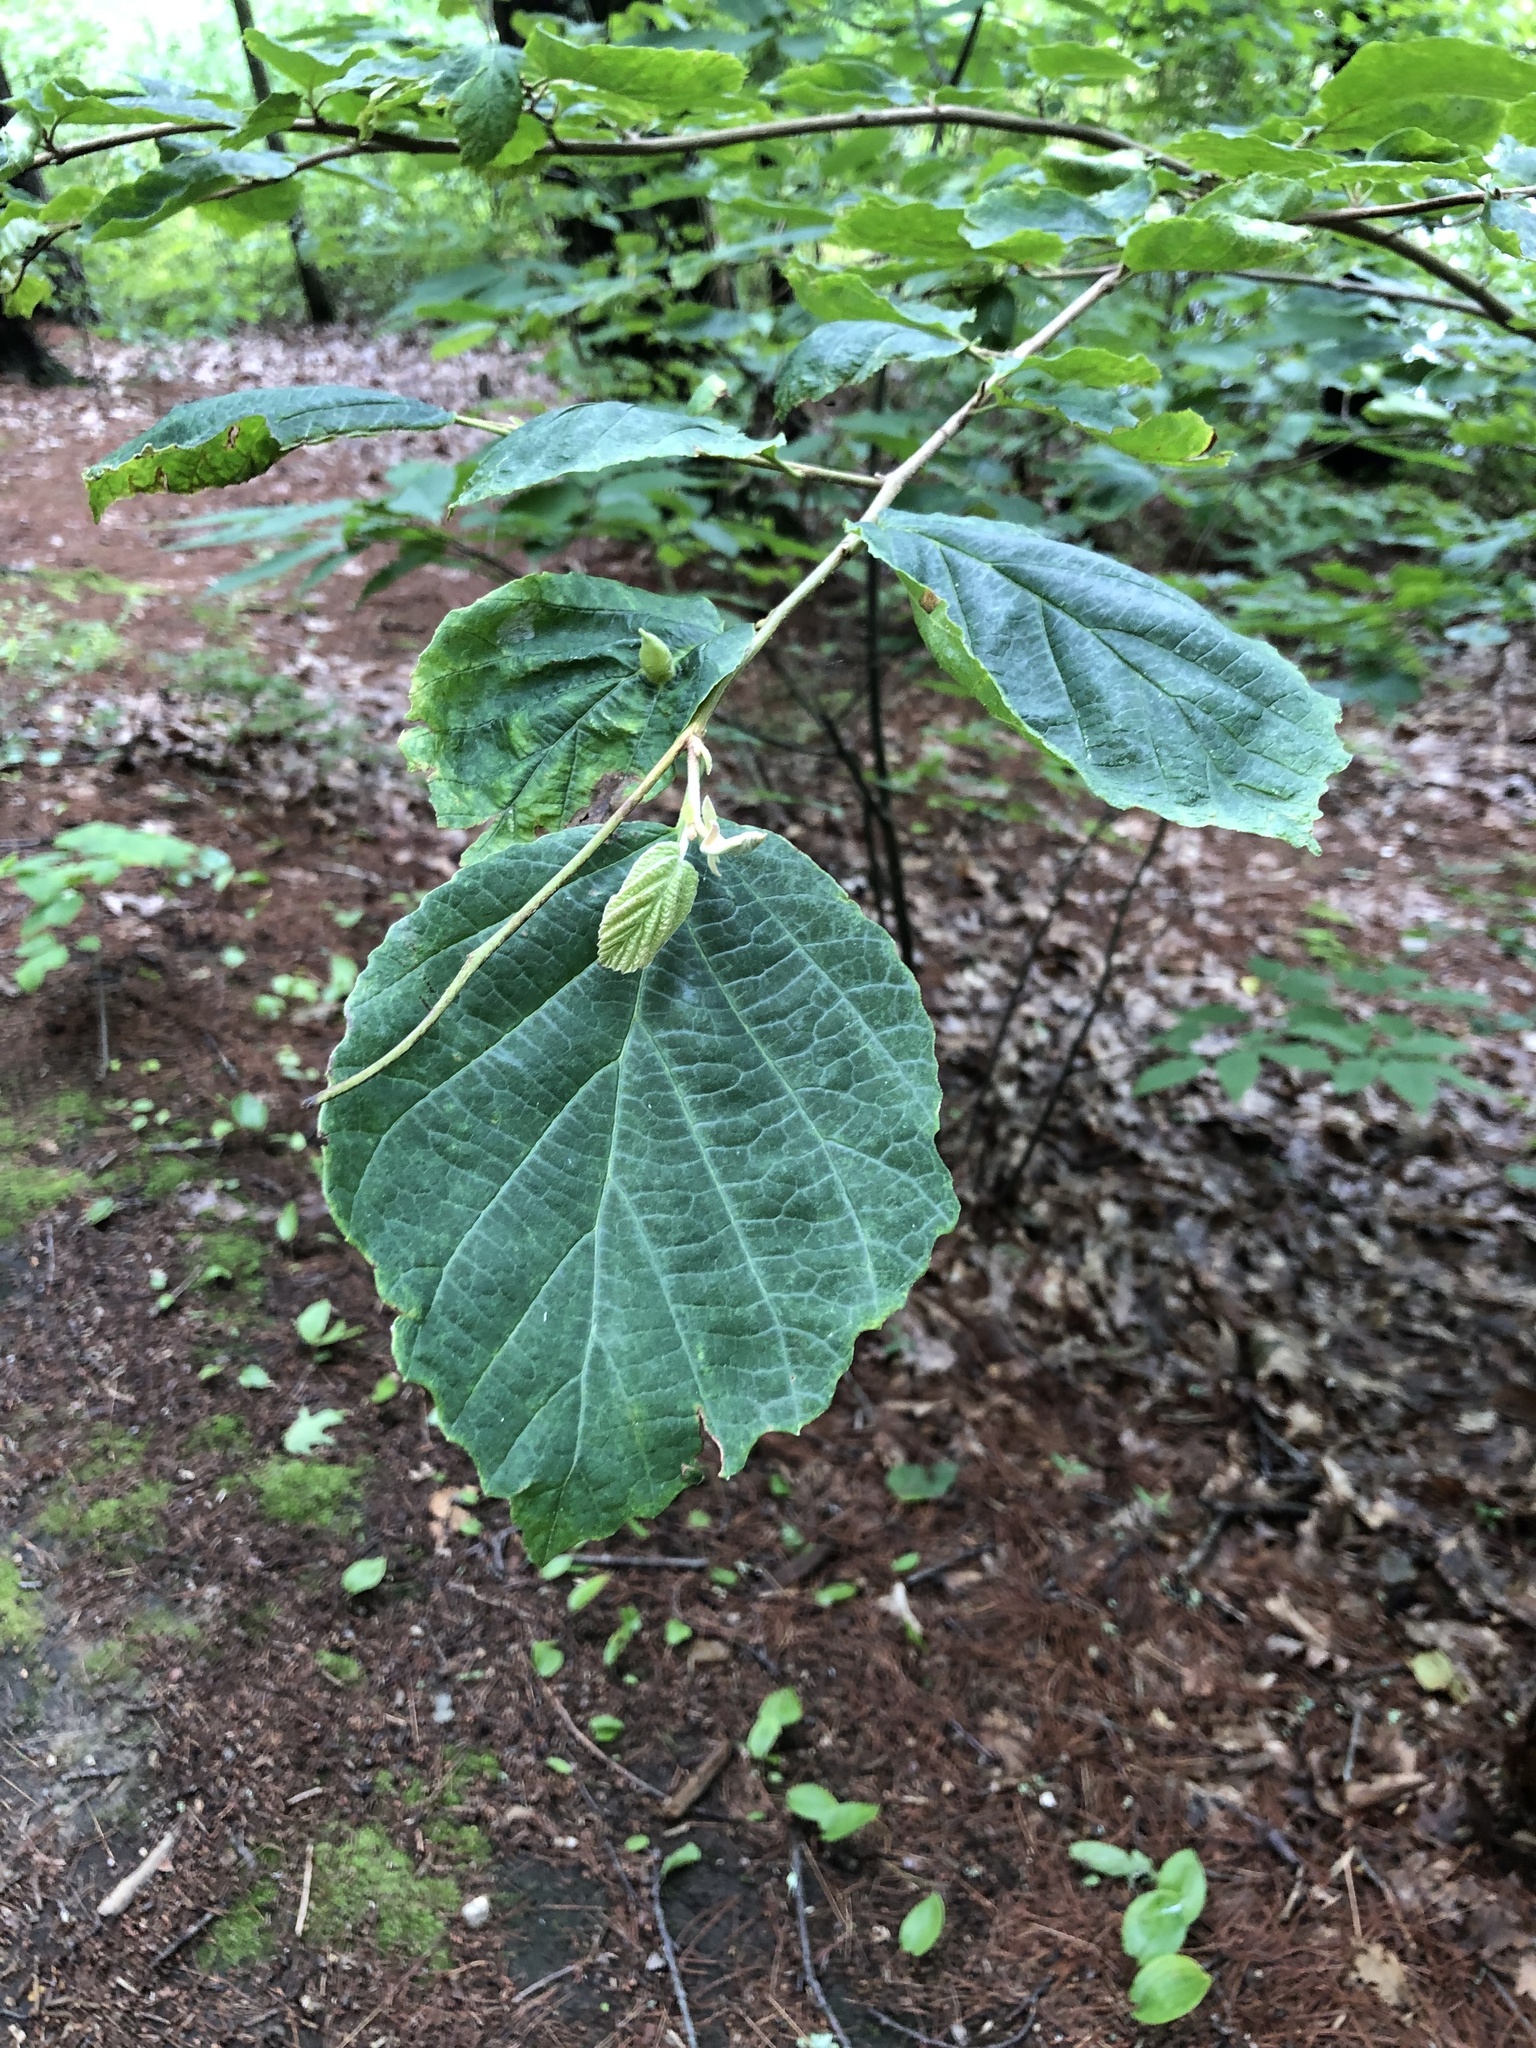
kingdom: Plantae
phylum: Tracheophyta
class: Magnoliopsida
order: Saxifragales
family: Hamamelidaceae
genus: Hamamelis
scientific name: Hamamelis virginiana
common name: Witch-hazel
